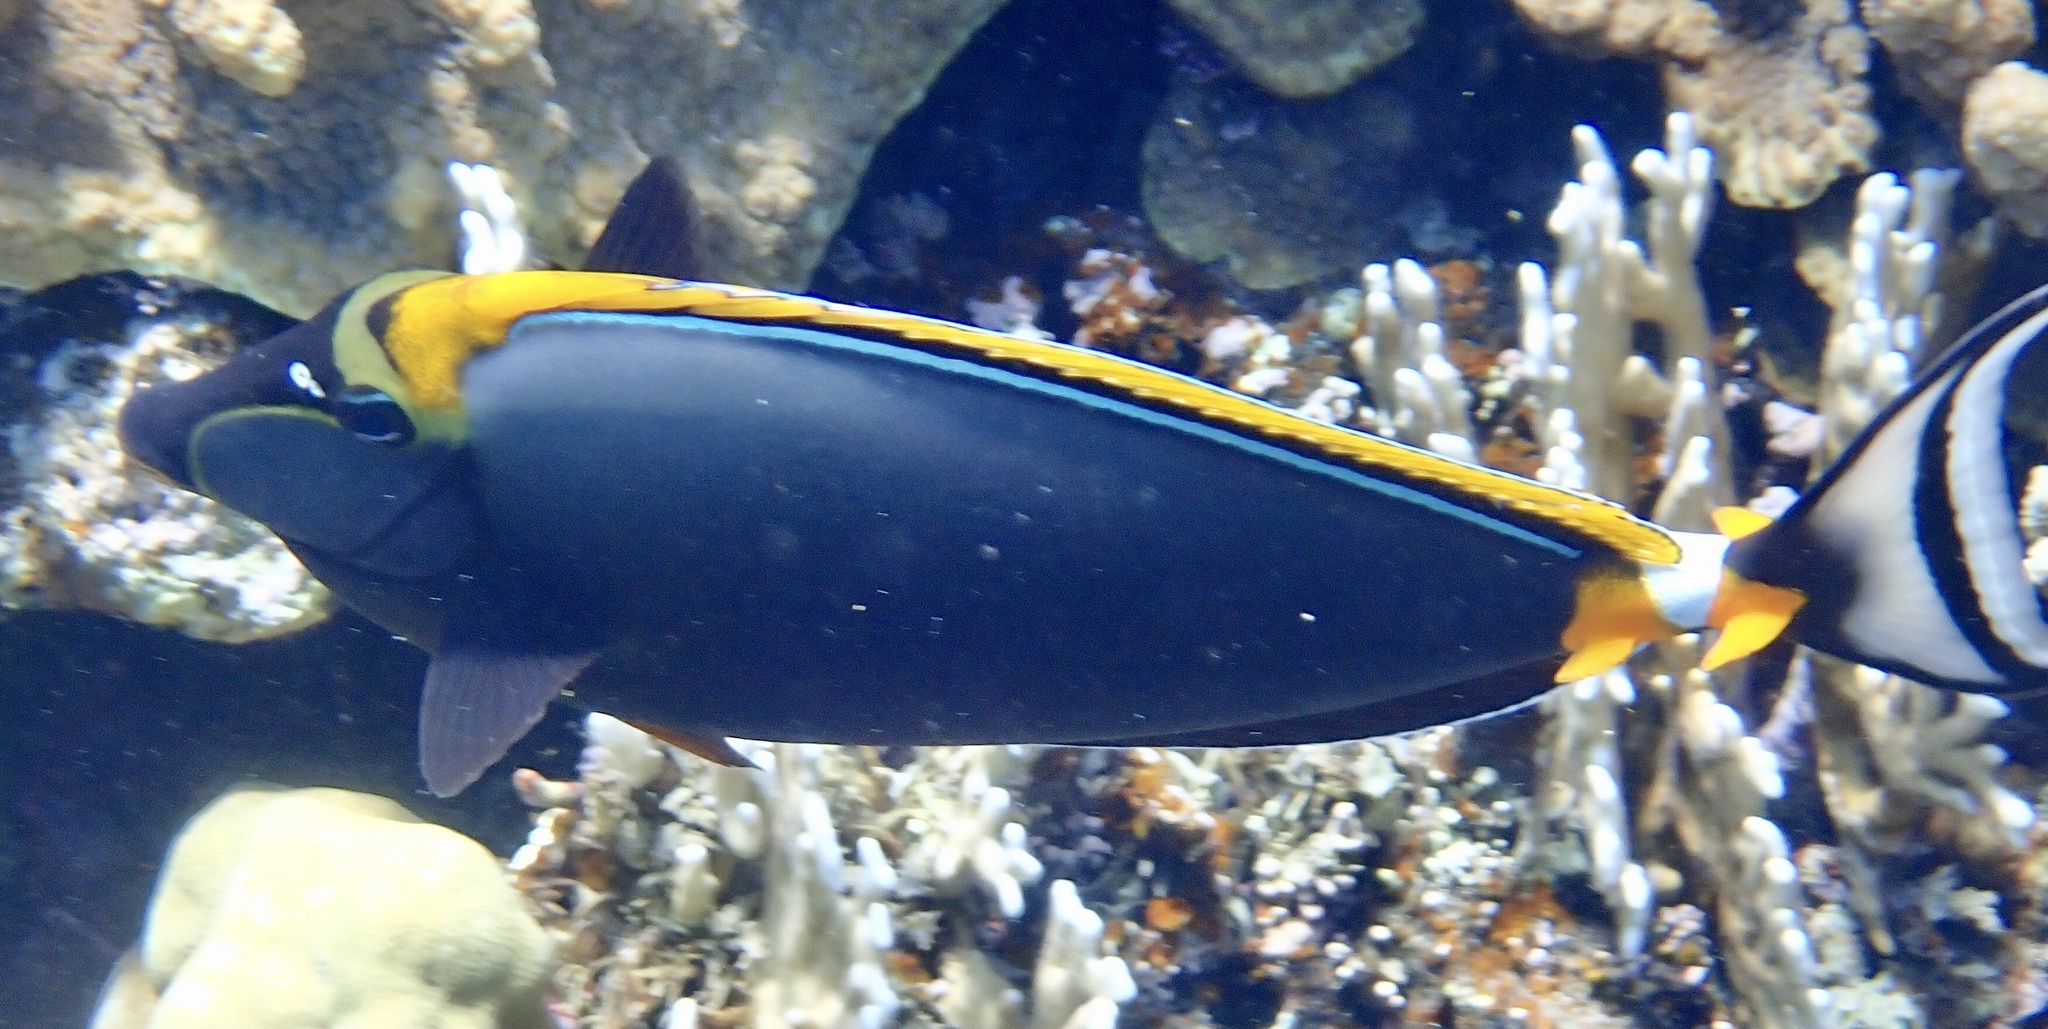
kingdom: Animalia
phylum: Chordata
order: Perciformes
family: Acanthuridae
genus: Naso
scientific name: Naso elegans
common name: Orangespine unicornfish
